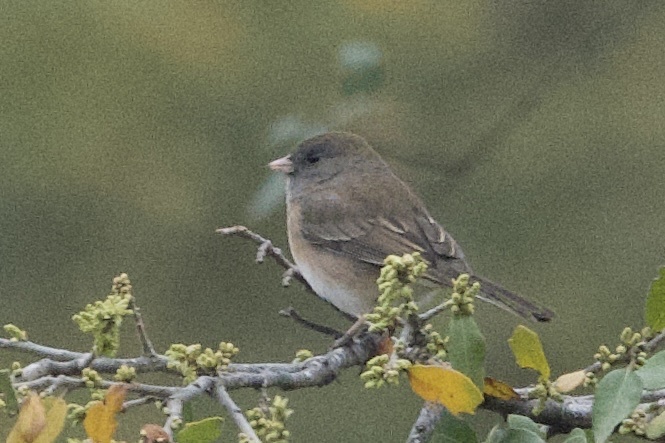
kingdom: Animalia
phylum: Chordata
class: Aves
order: Passeriformes
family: Passerellidae
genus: Junco
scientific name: Junco hyemalis
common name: Dark-eyed junco
